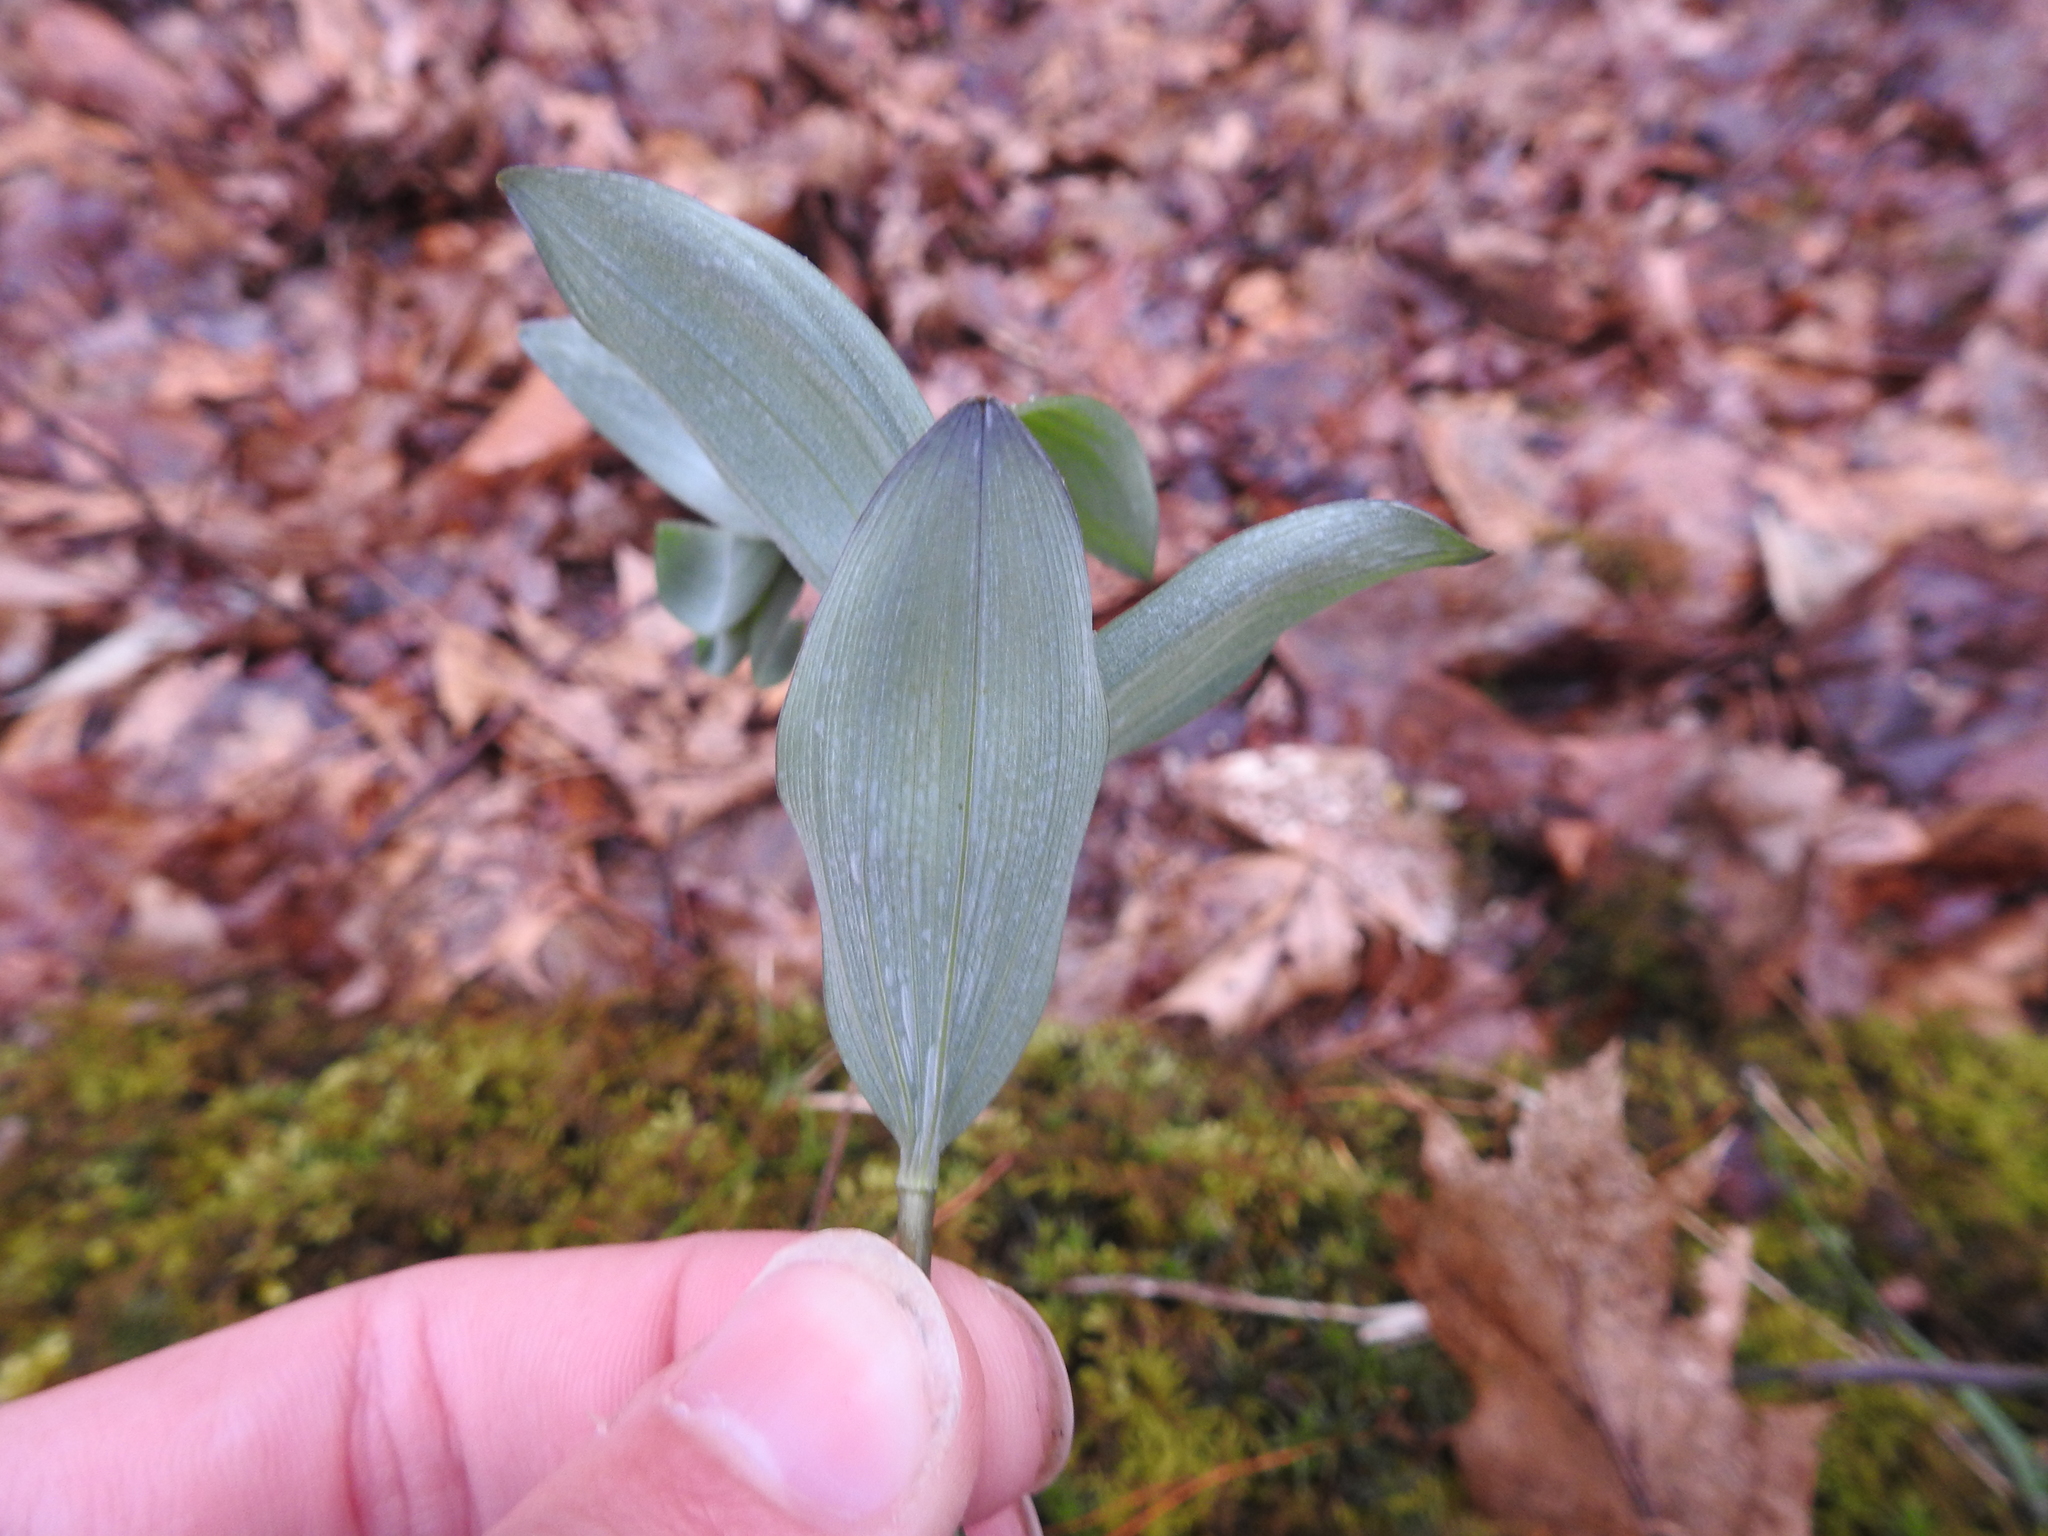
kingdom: Plantae
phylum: Tracheophyta
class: Liliopsida
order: Asparagales
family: Asparagaceae
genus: Polygonatum
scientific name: Polygonatum pubescens
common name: Downy solomon's seal
